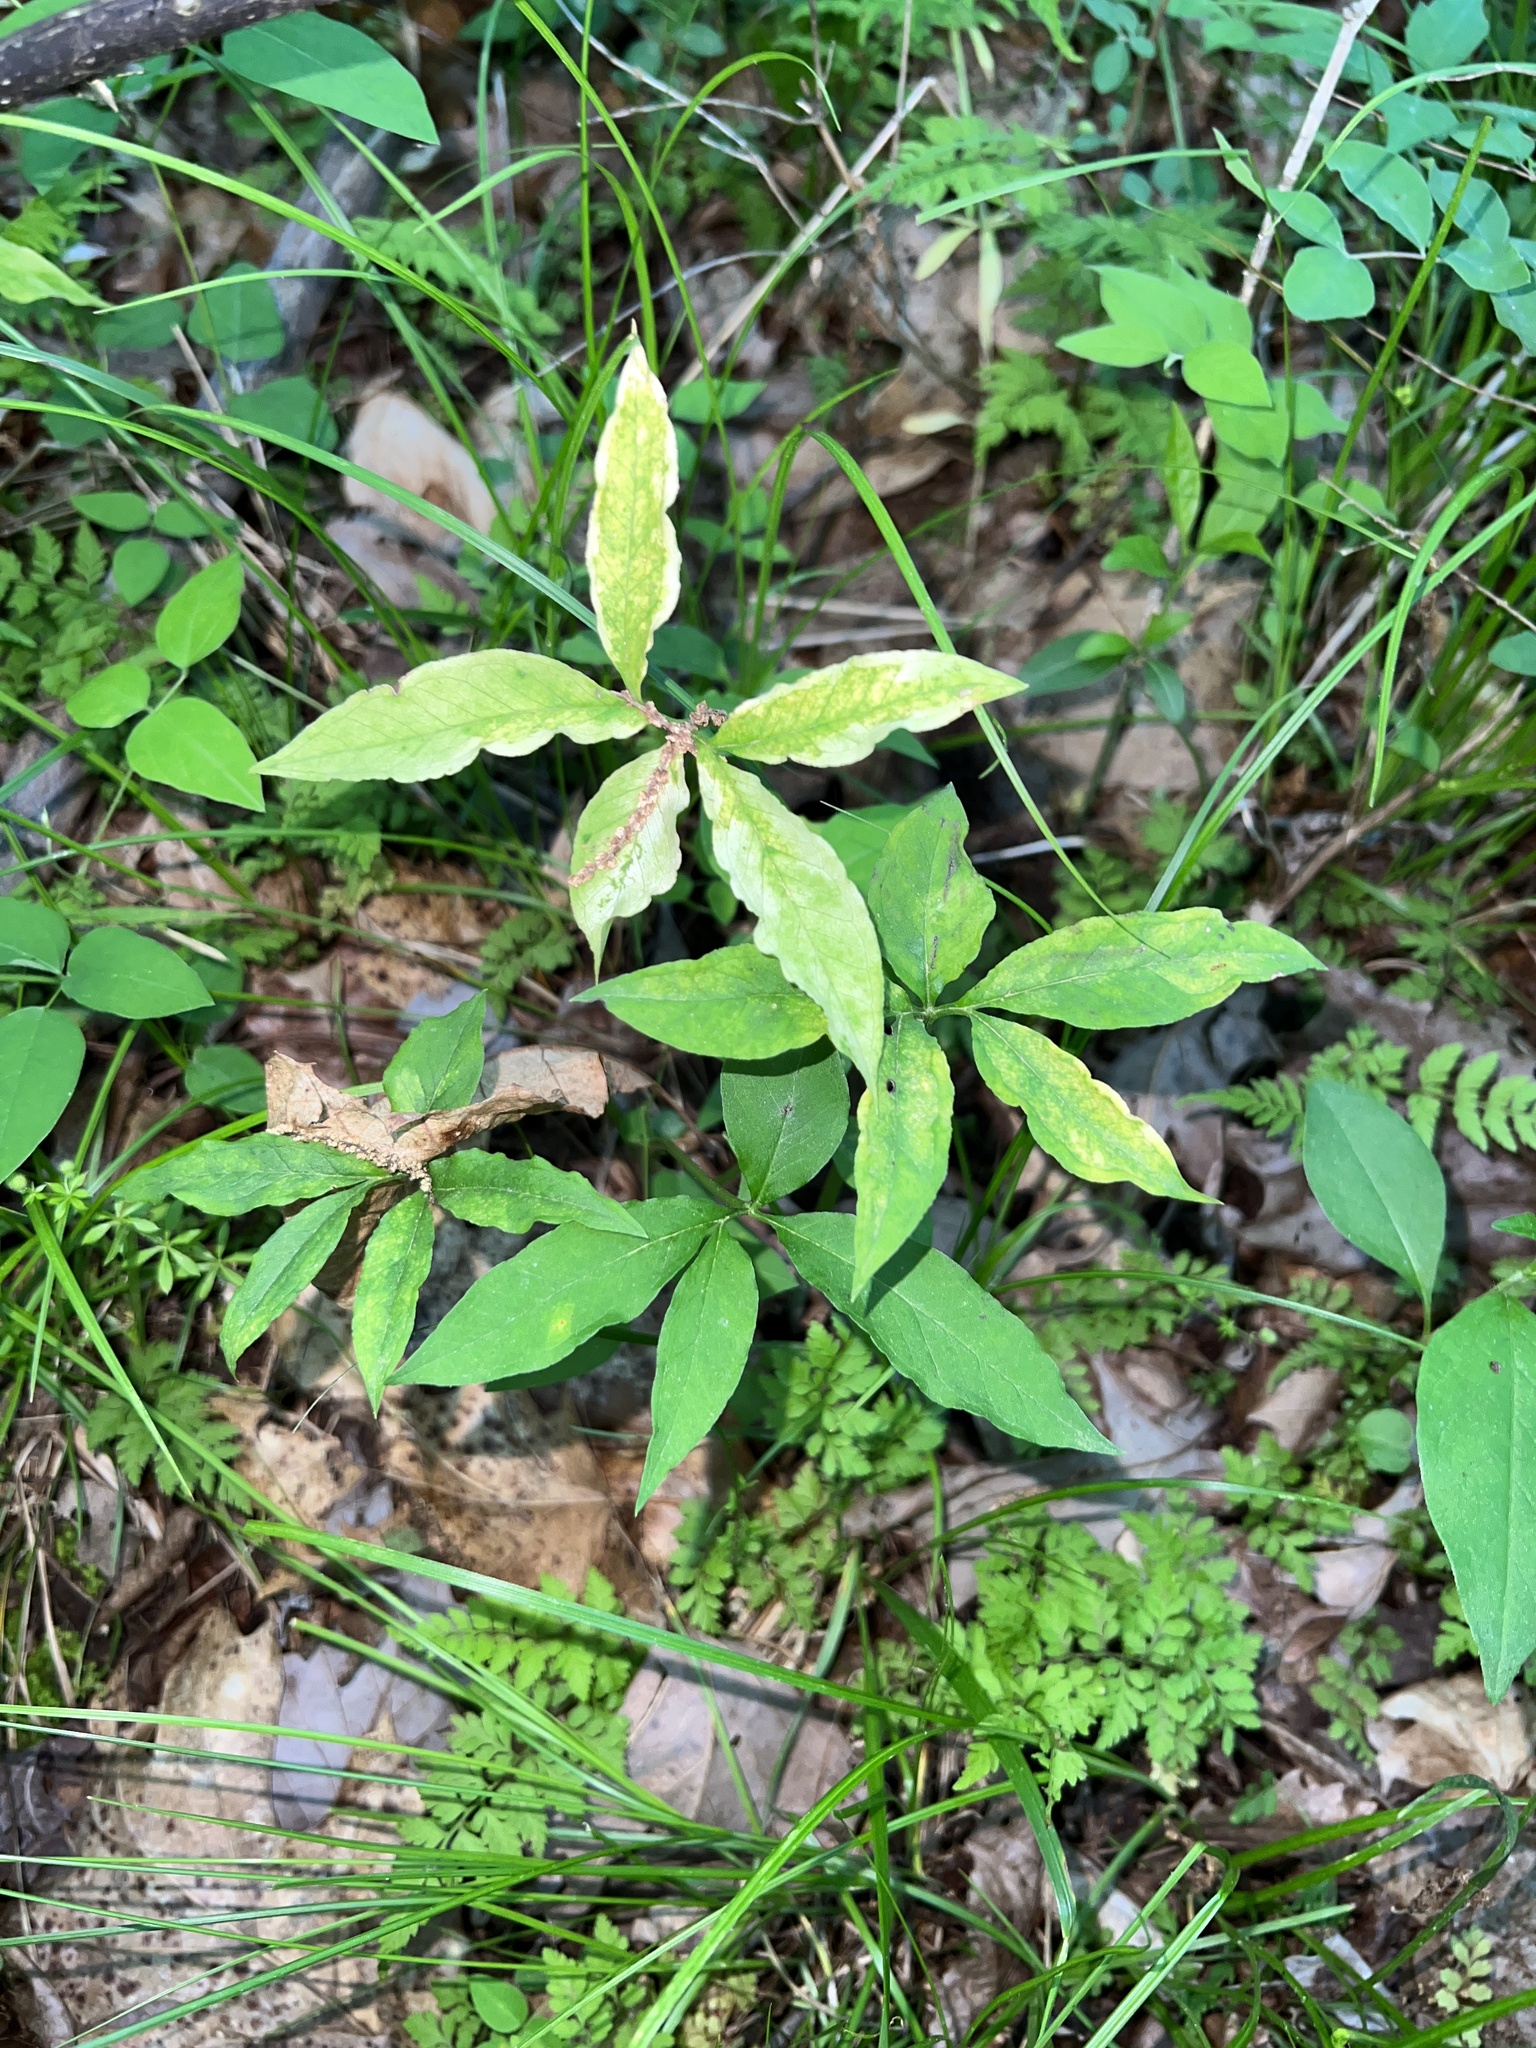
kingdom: Plantae
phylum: Tracheophyta
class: Liliopsida
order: Alismatales
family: Araceae
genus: Arisaema
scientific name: Arisaema dracontium
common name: Dragon-arum
